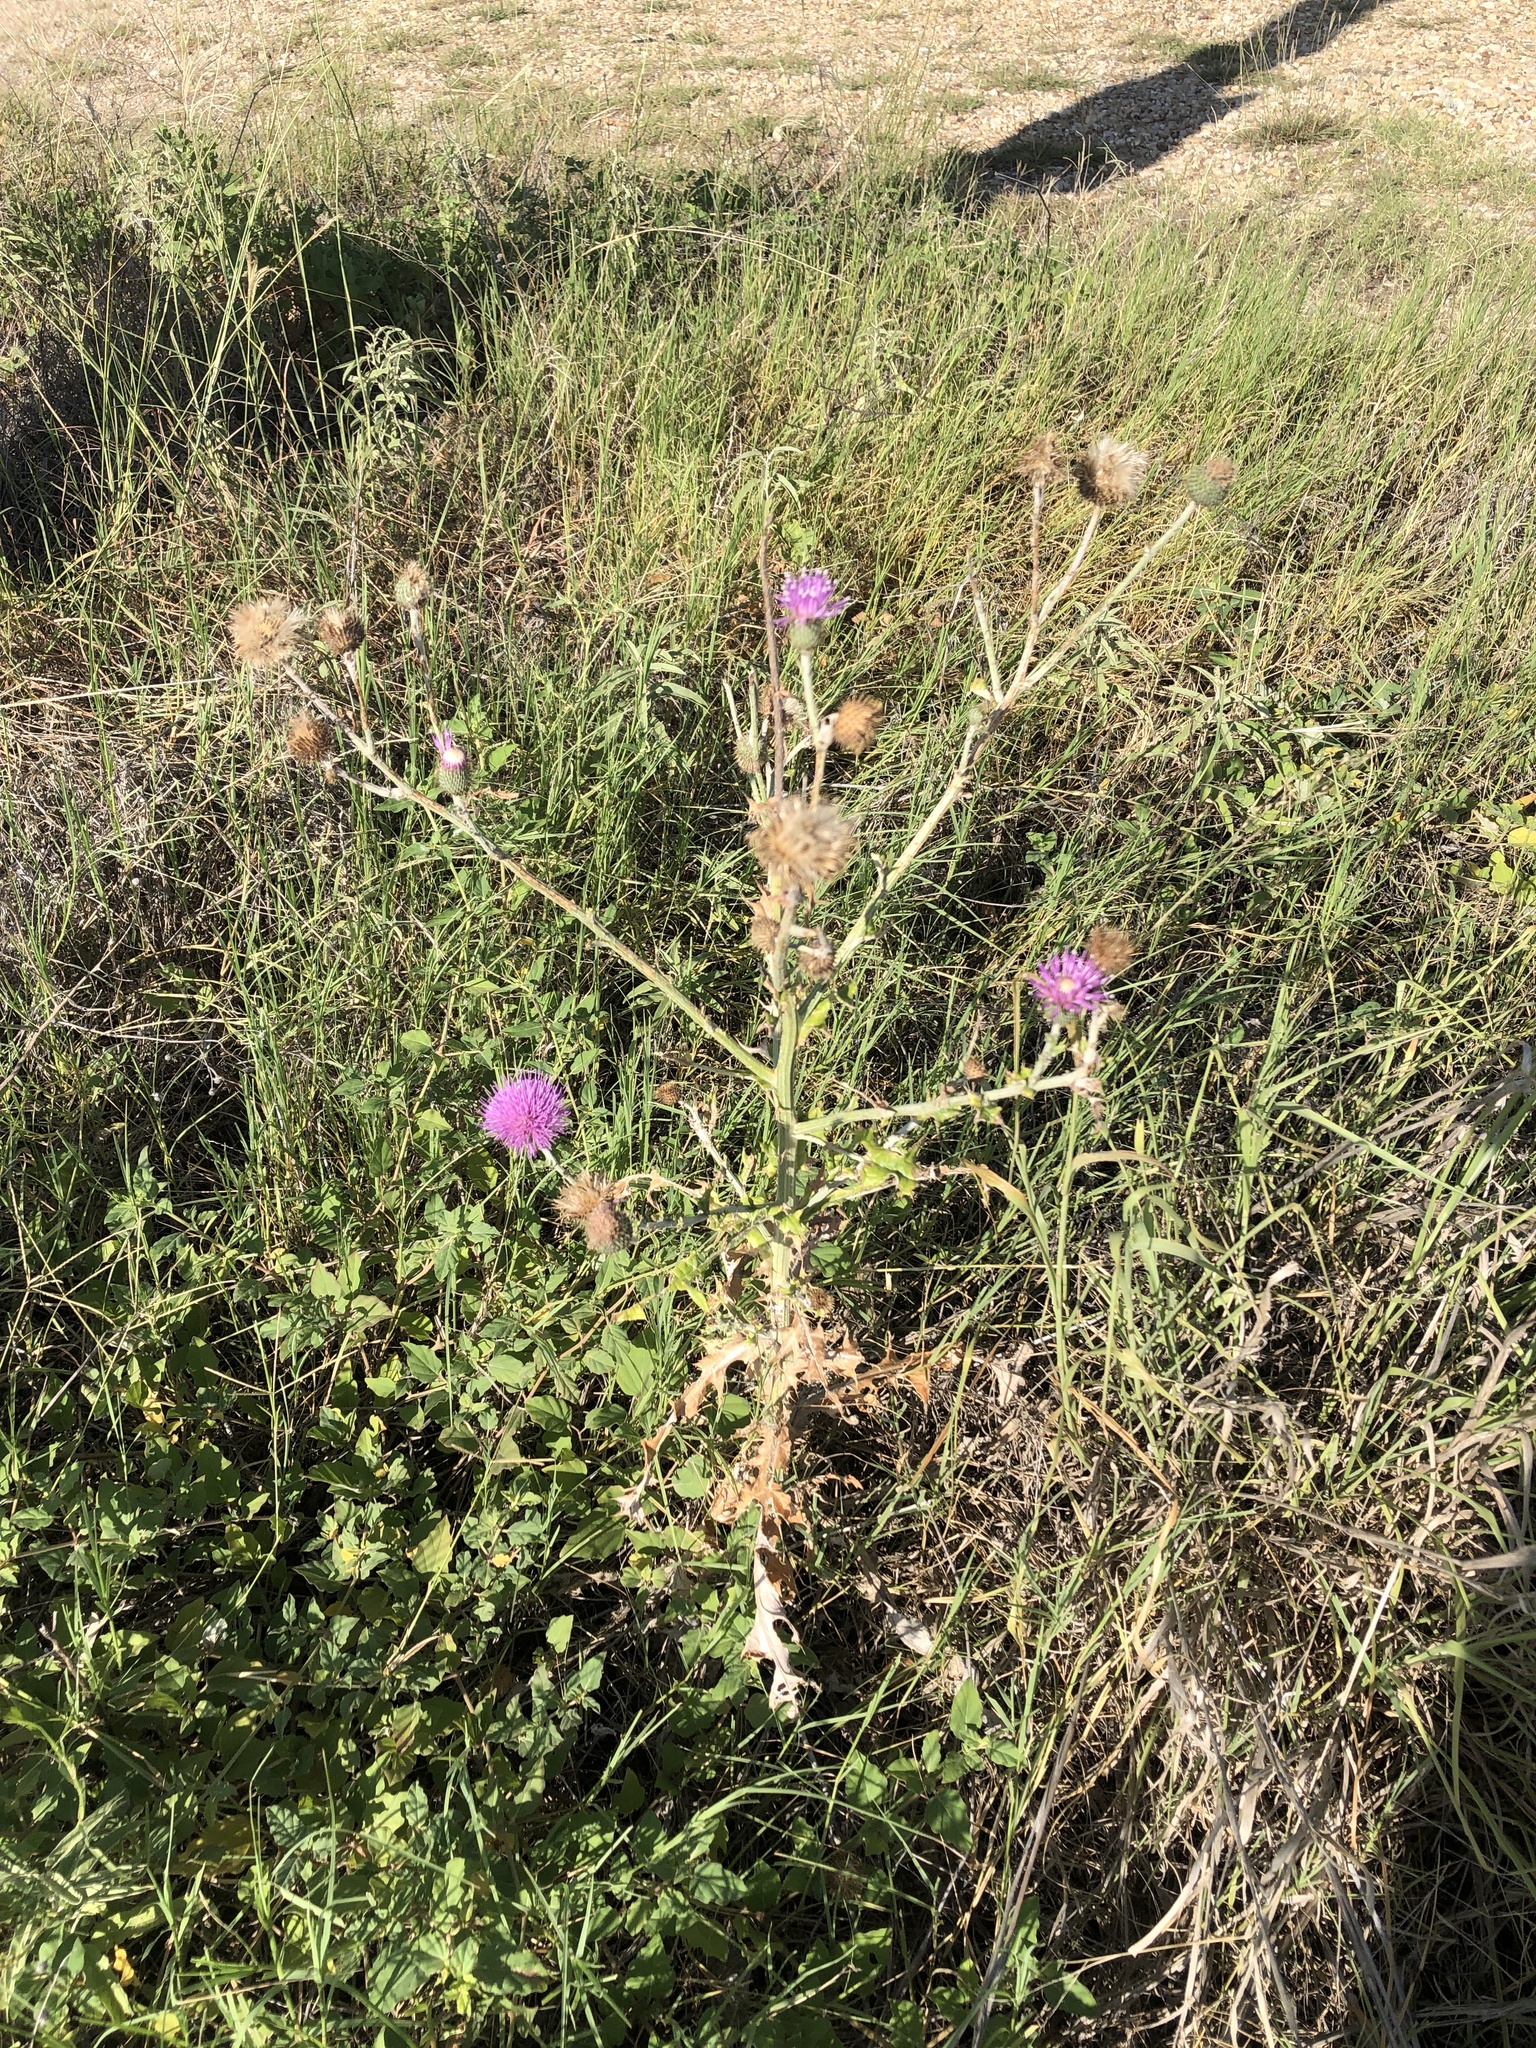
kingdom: Plantae
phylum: Tracheophyta
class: Magnoliopsida
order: Asterales
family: Asteraceae
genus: Cirsium
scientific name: Cirsium texanum
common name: Texas purple thistle
